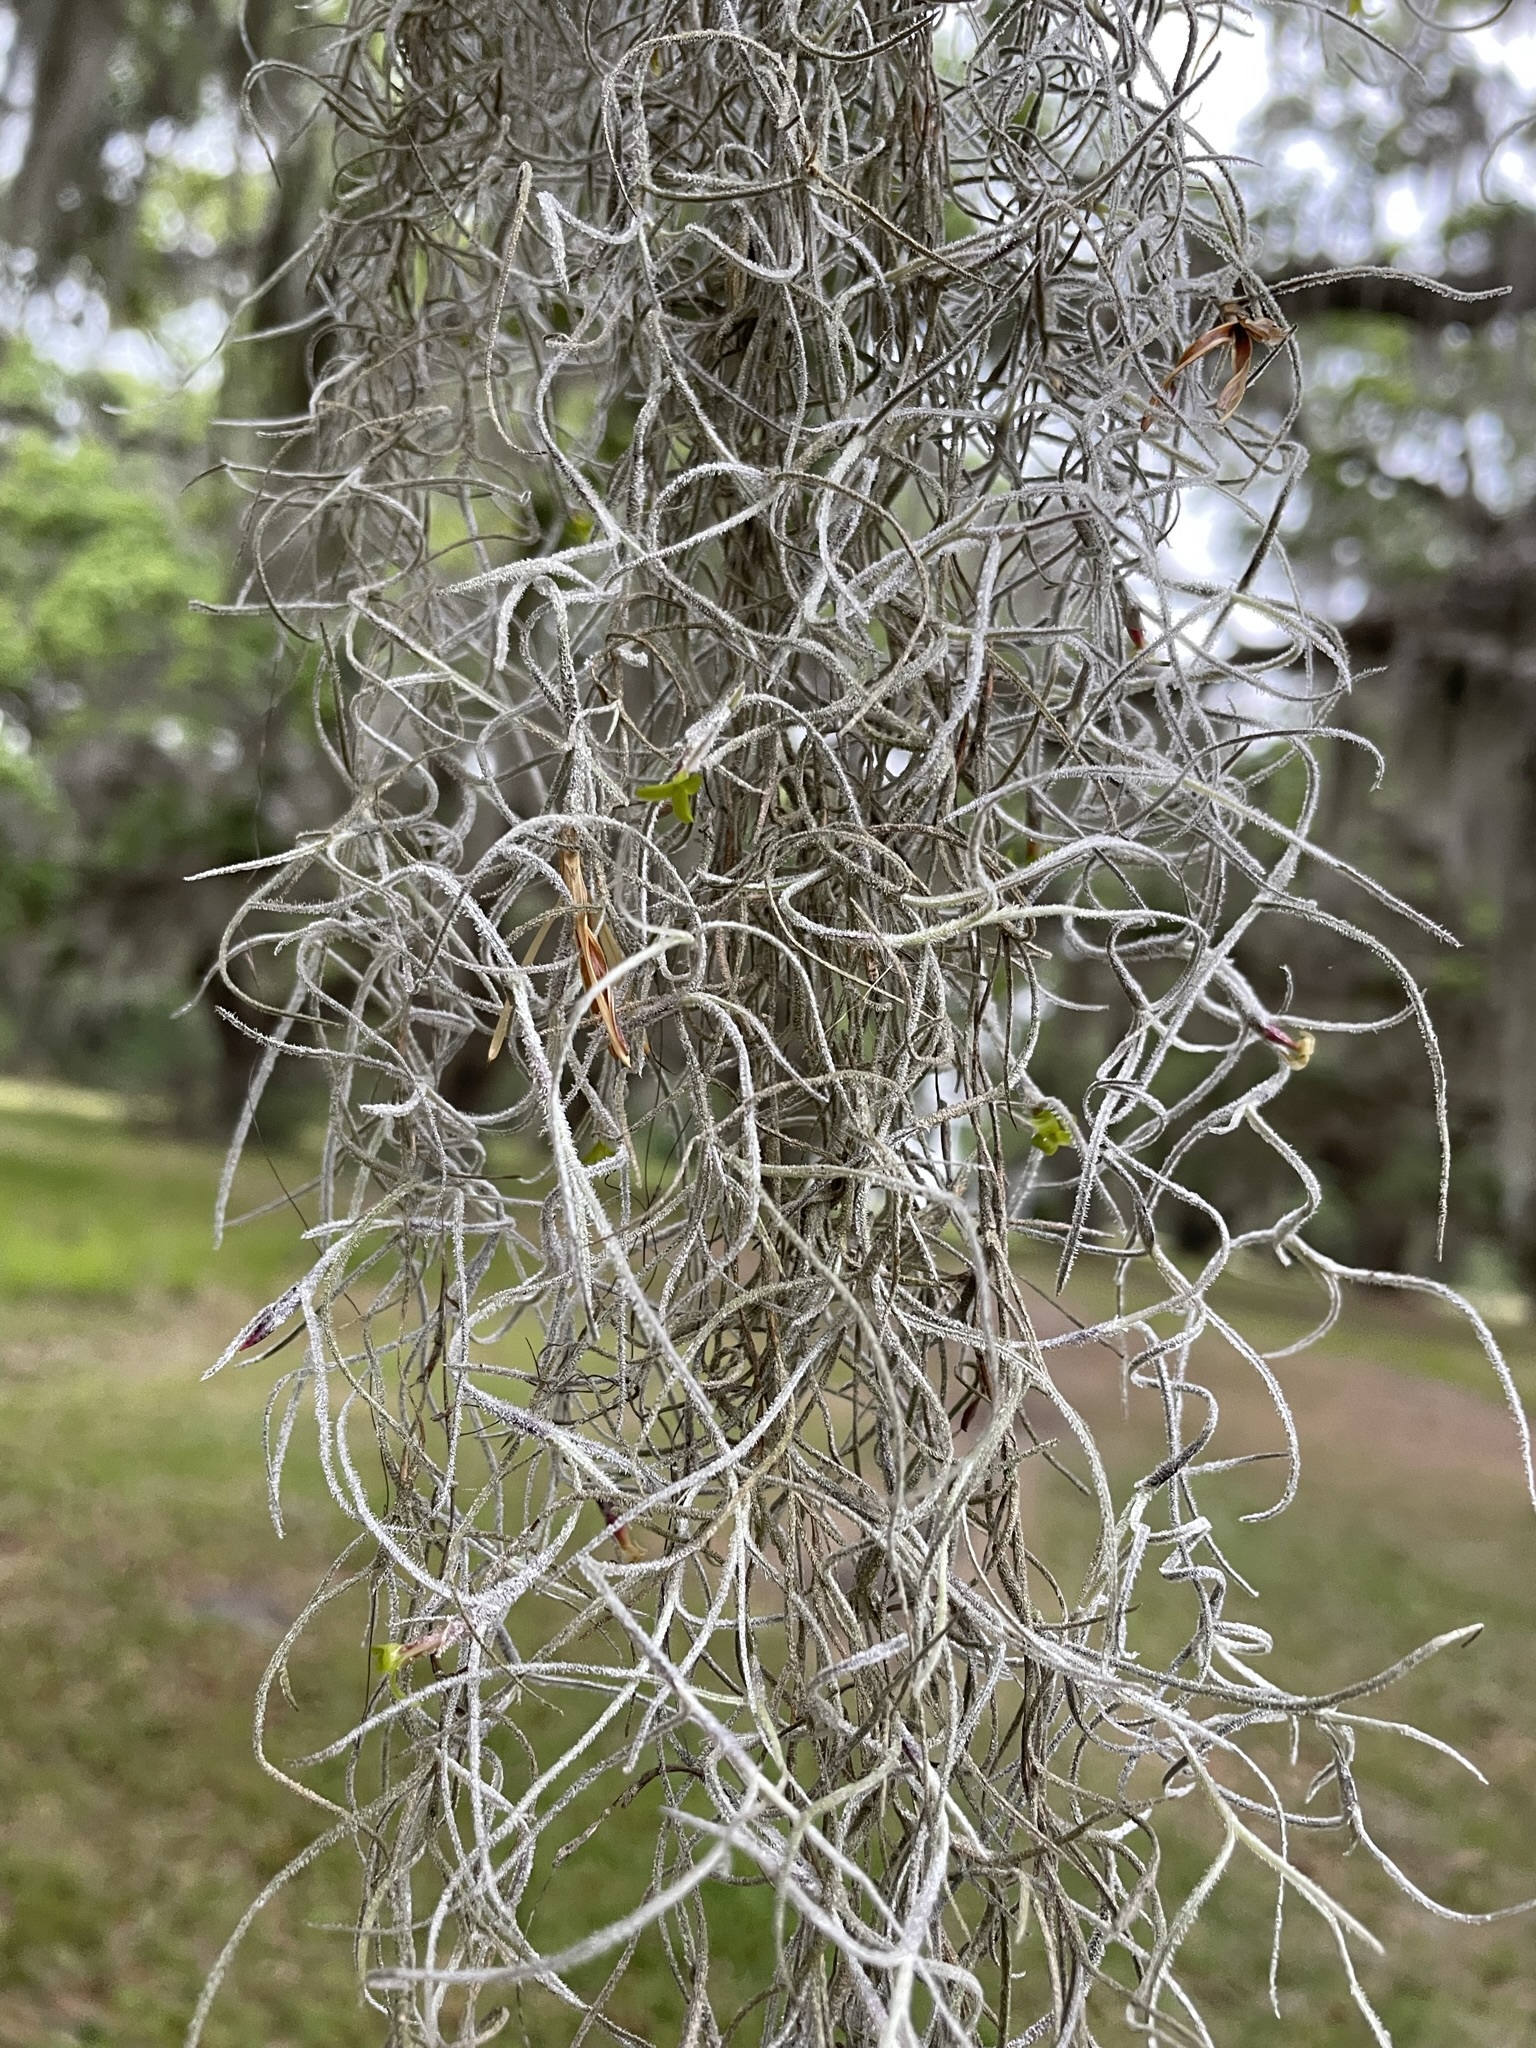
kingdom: Plantae
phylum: Tracheophyta
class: Liliopsida
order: Poales
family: Bromeliaceae
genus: Tillandsia
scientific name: Tillandsia usneoides
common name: Spanish moss
